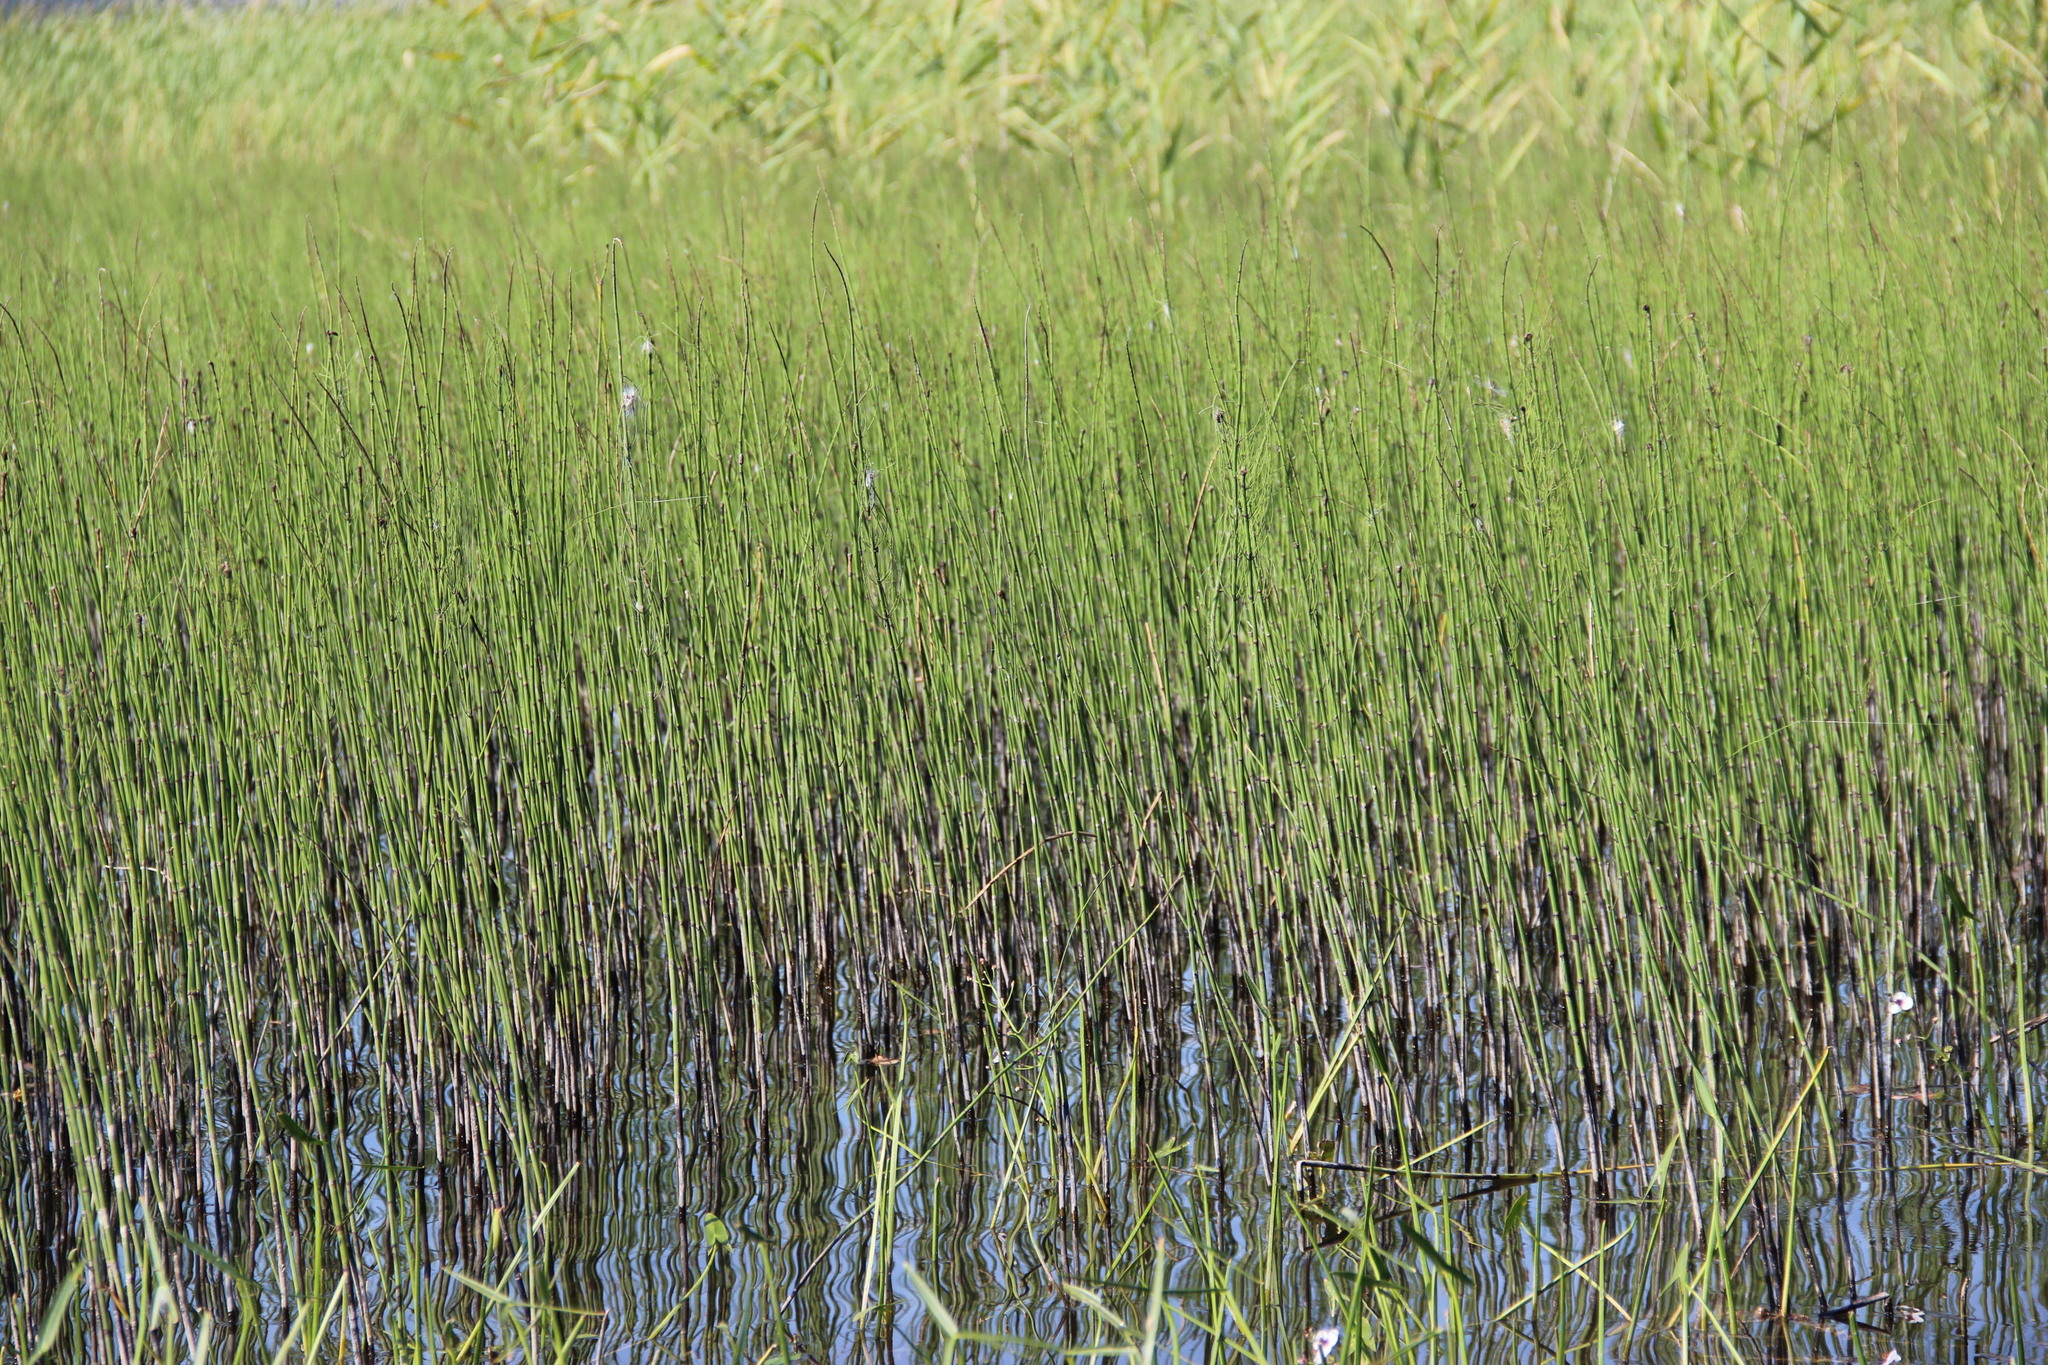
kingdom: Plantae
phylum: Tracheophyta
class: Polypodiopsida
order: Equisetales
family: Equisetaceae
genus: Equisetum
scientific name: Equisetum fluviatile
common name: Water horsetail
